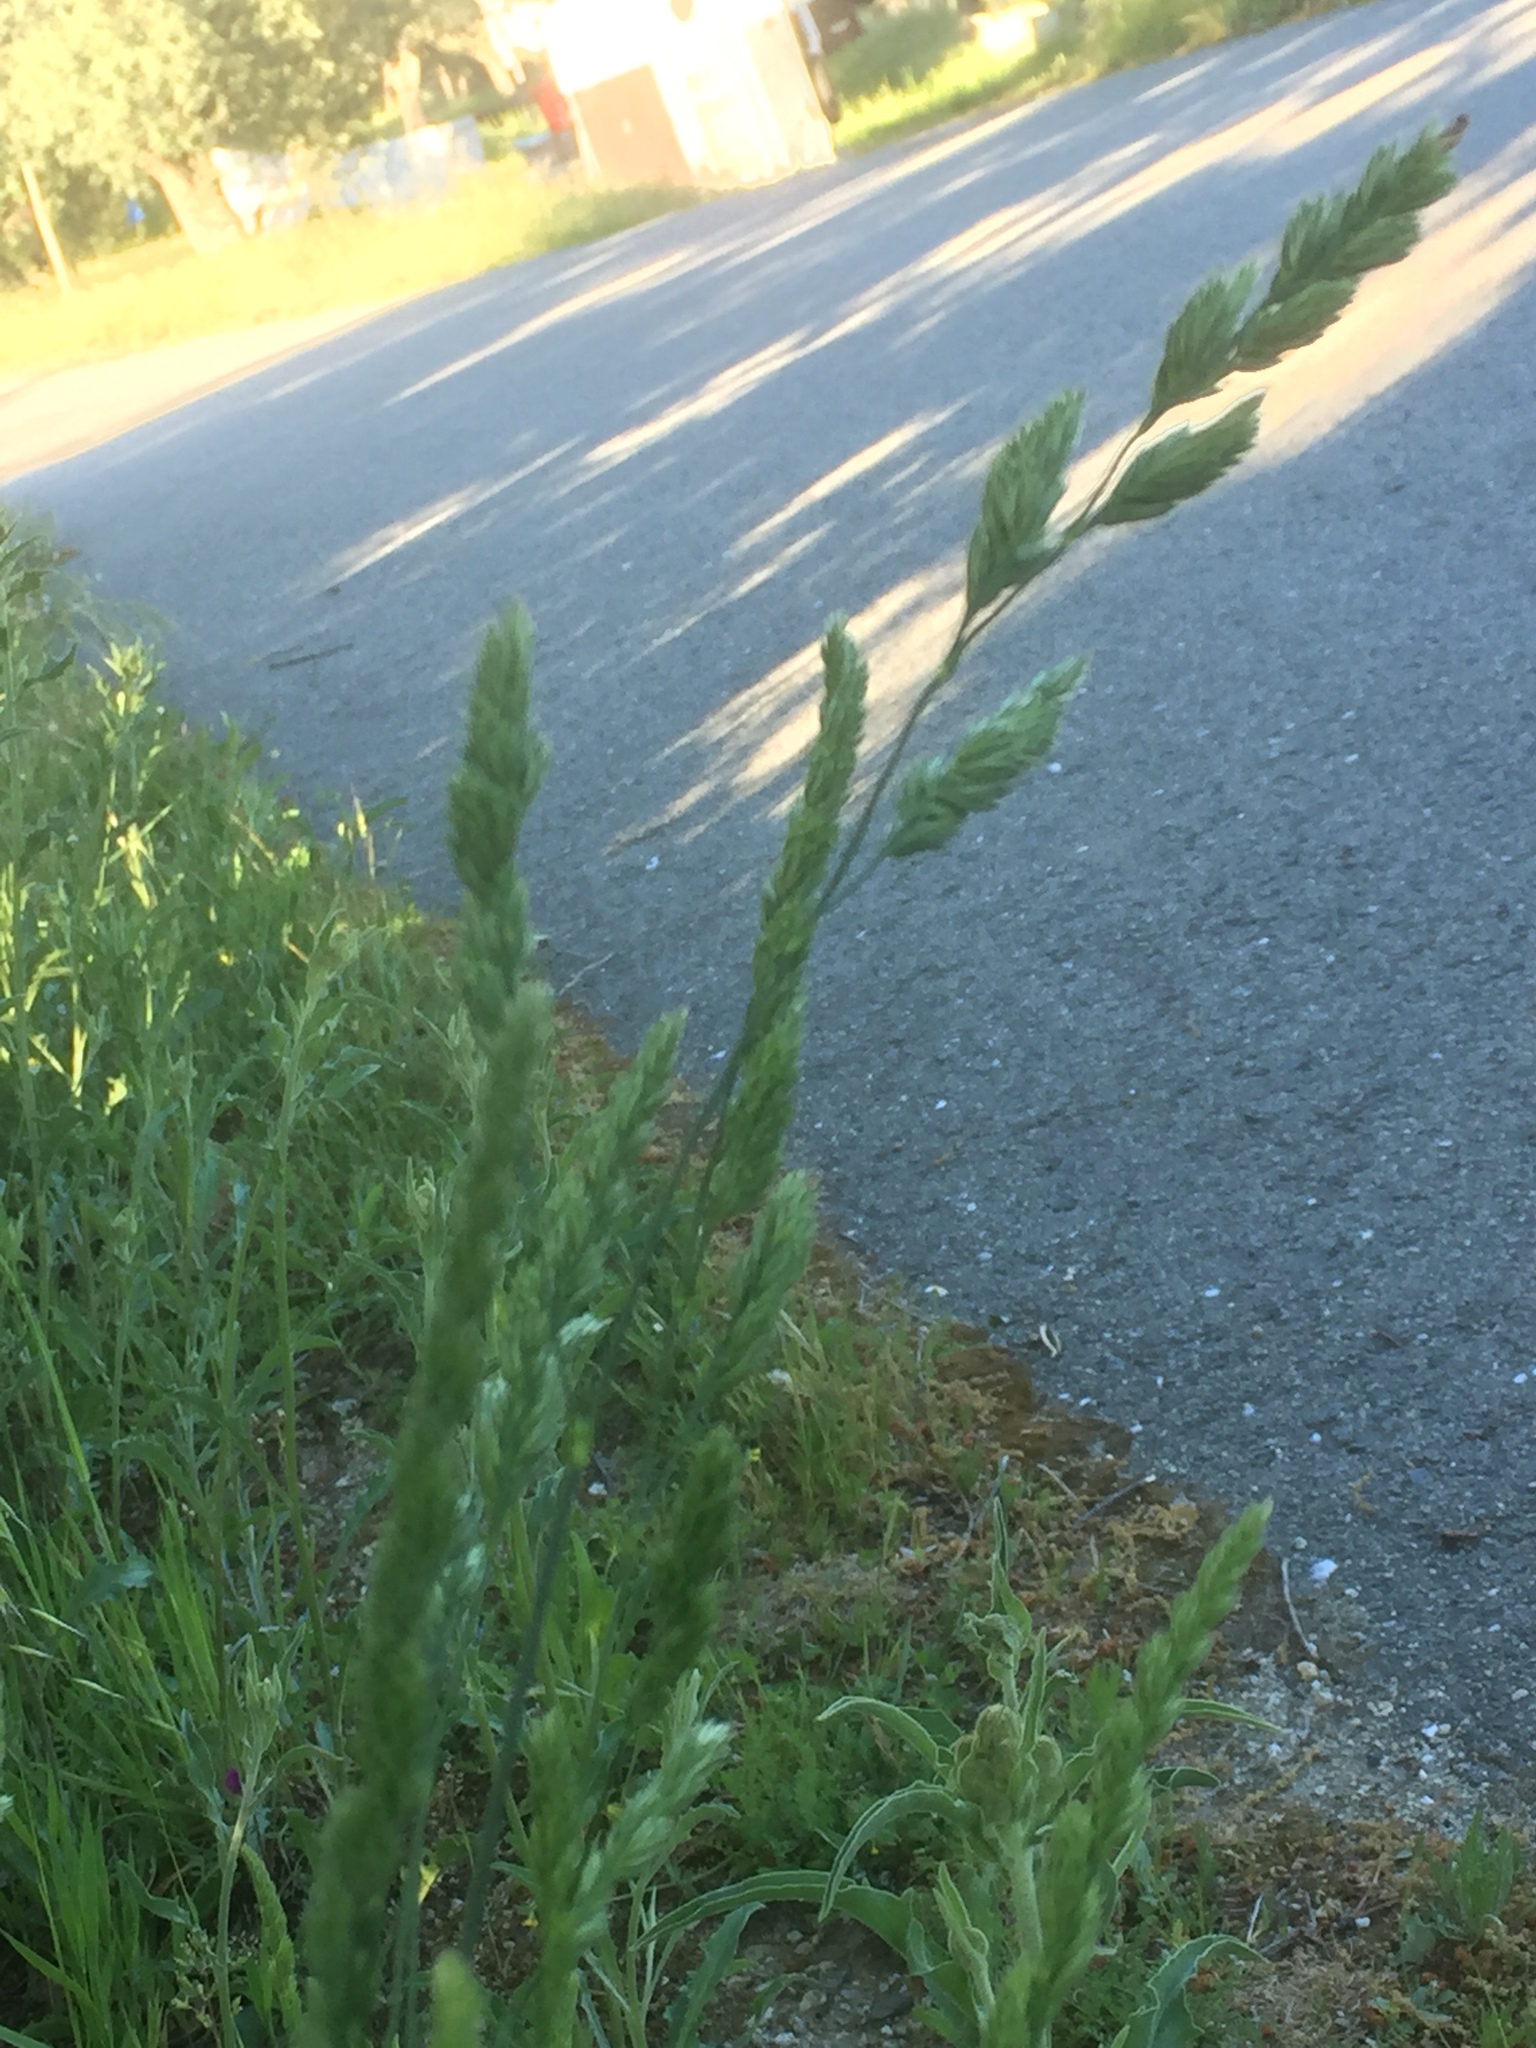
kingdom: Plantae
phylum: Tracheophyta
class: Liliopsida
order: Poales
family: Poaceae
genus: Dactylis
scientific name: Dactylis glomerata
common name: Orchardgrass
